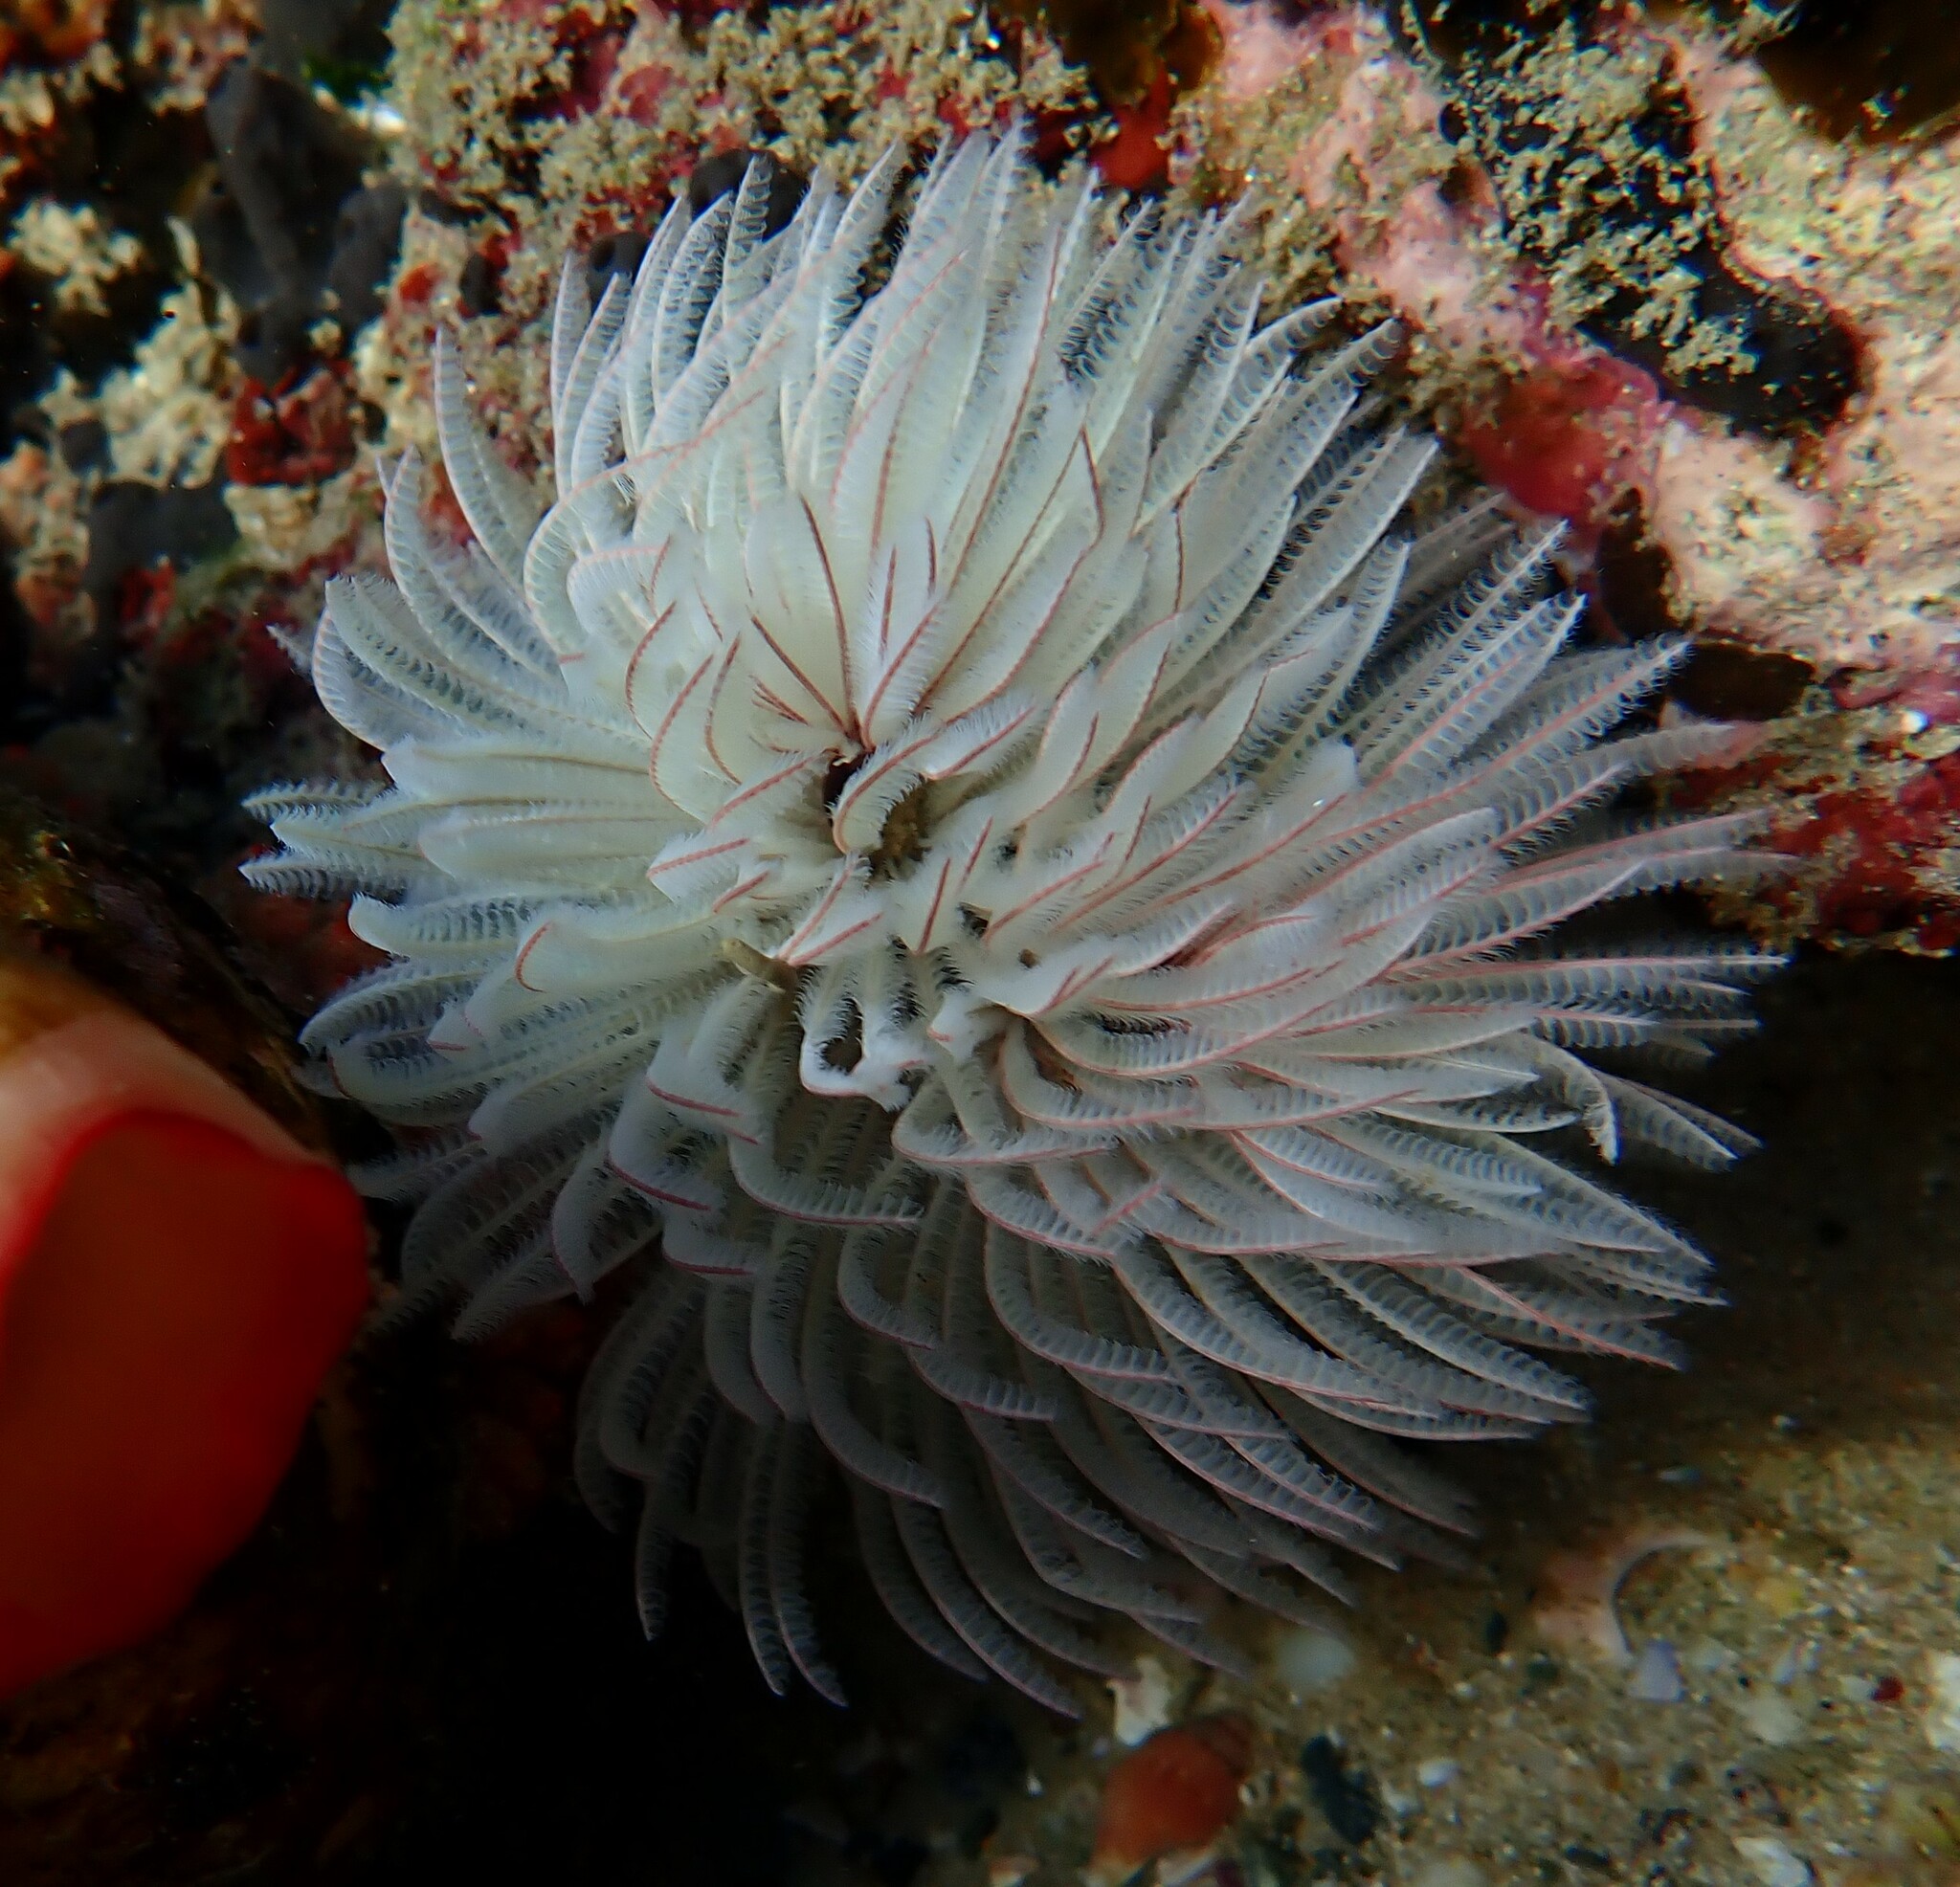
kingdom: Animalia
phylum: Annelida
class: Polychaeta
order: Sabellida
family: Sabellidae
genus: Sabellastarte
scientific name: Sabellastarte australiensis
